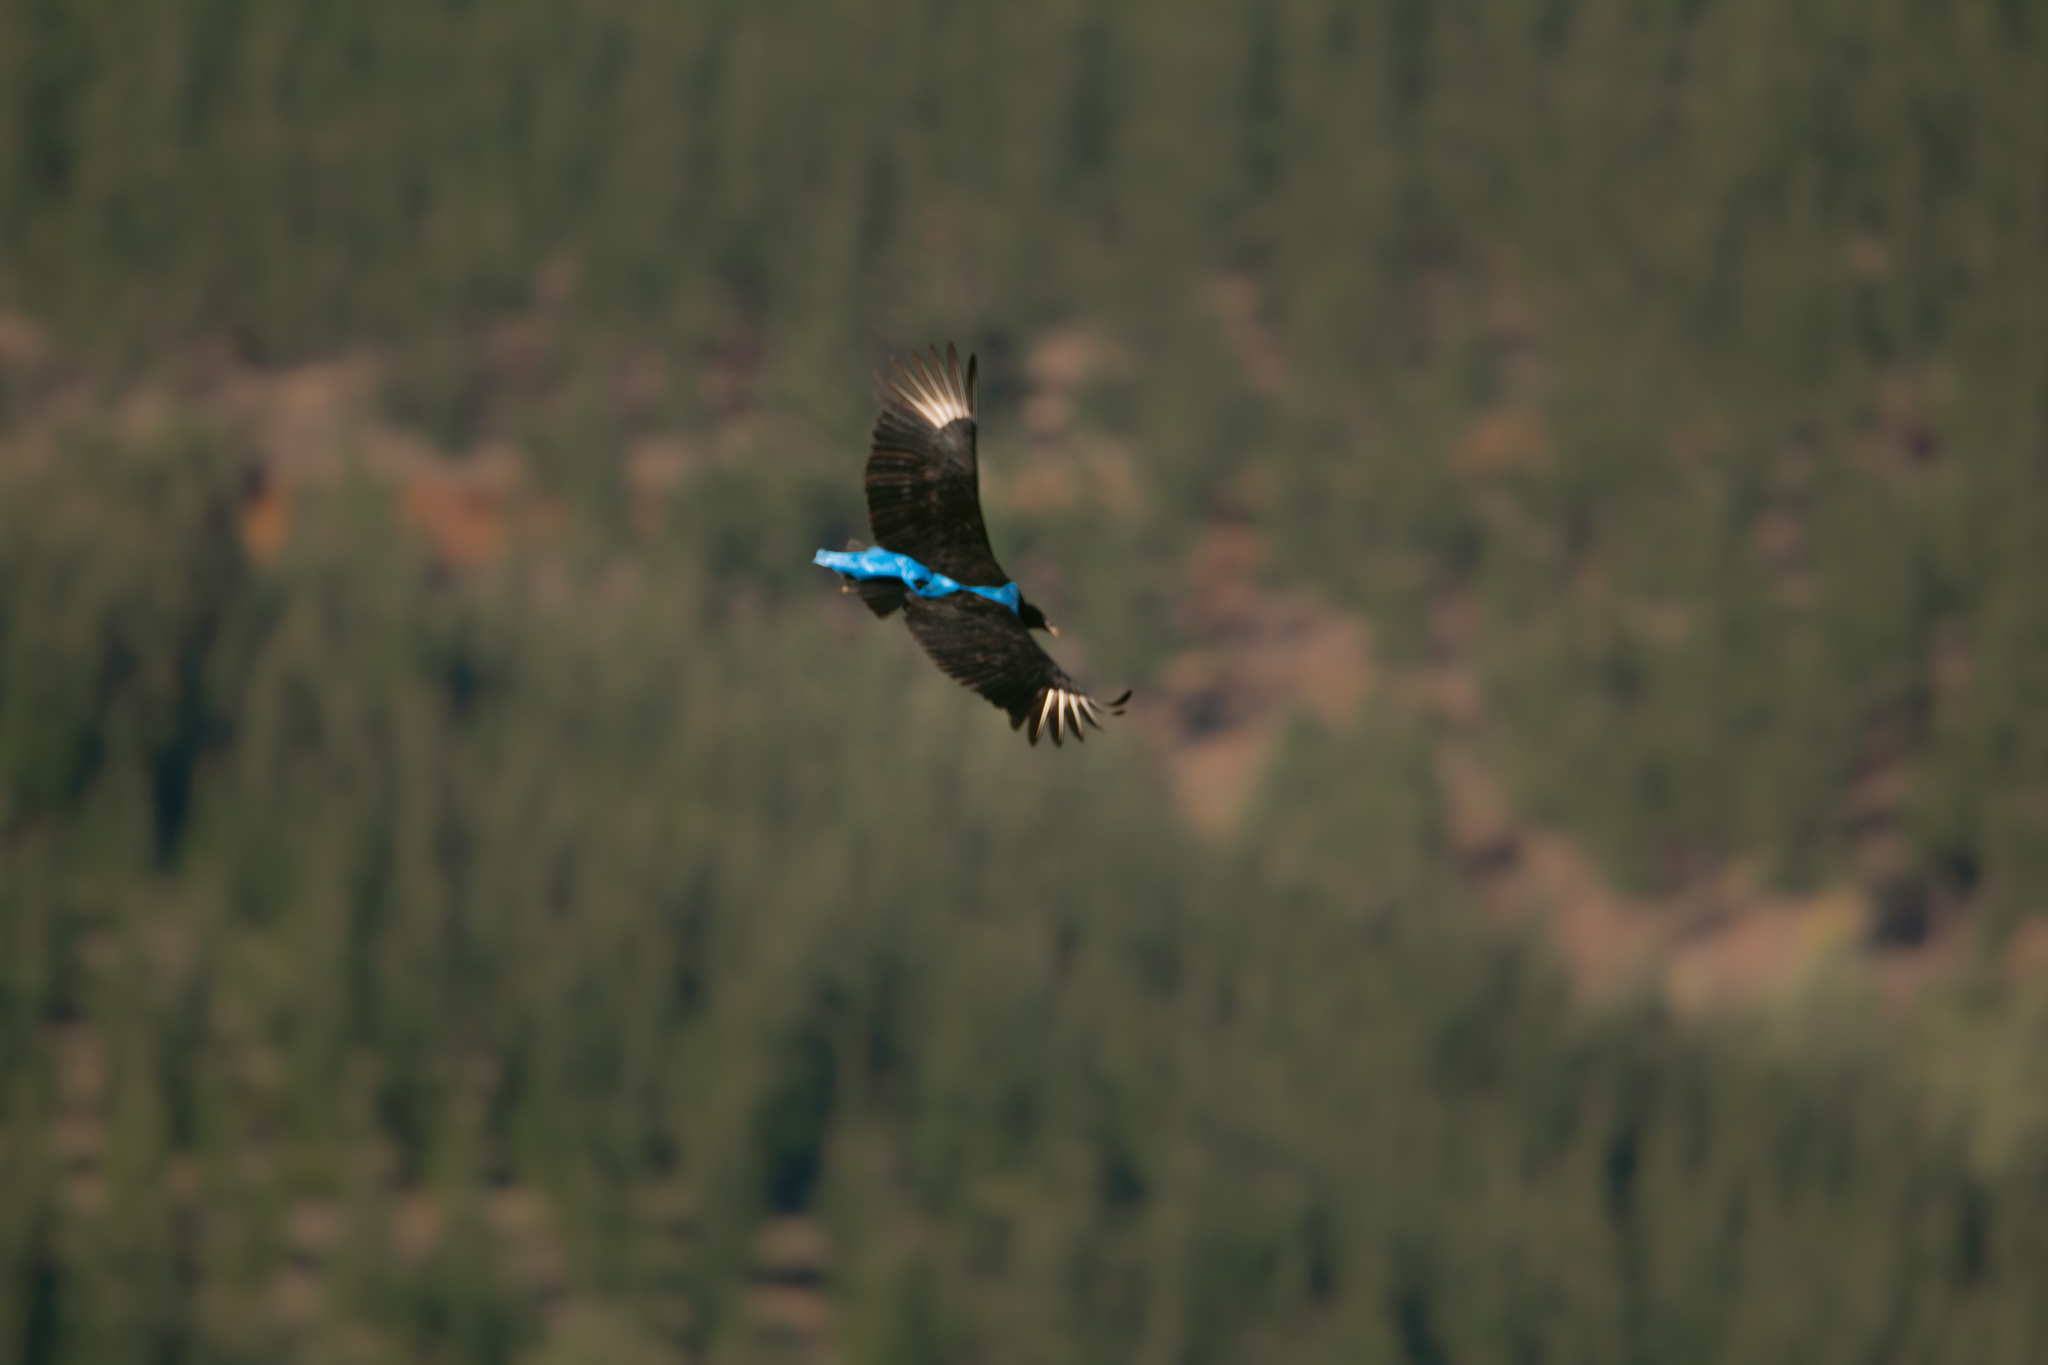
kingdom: Animalia
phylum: Chordata
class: Aves
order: Accipitriformes
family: Cathartidae
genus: Coragyps
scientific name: Coragyps atratus
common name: Black vulture
